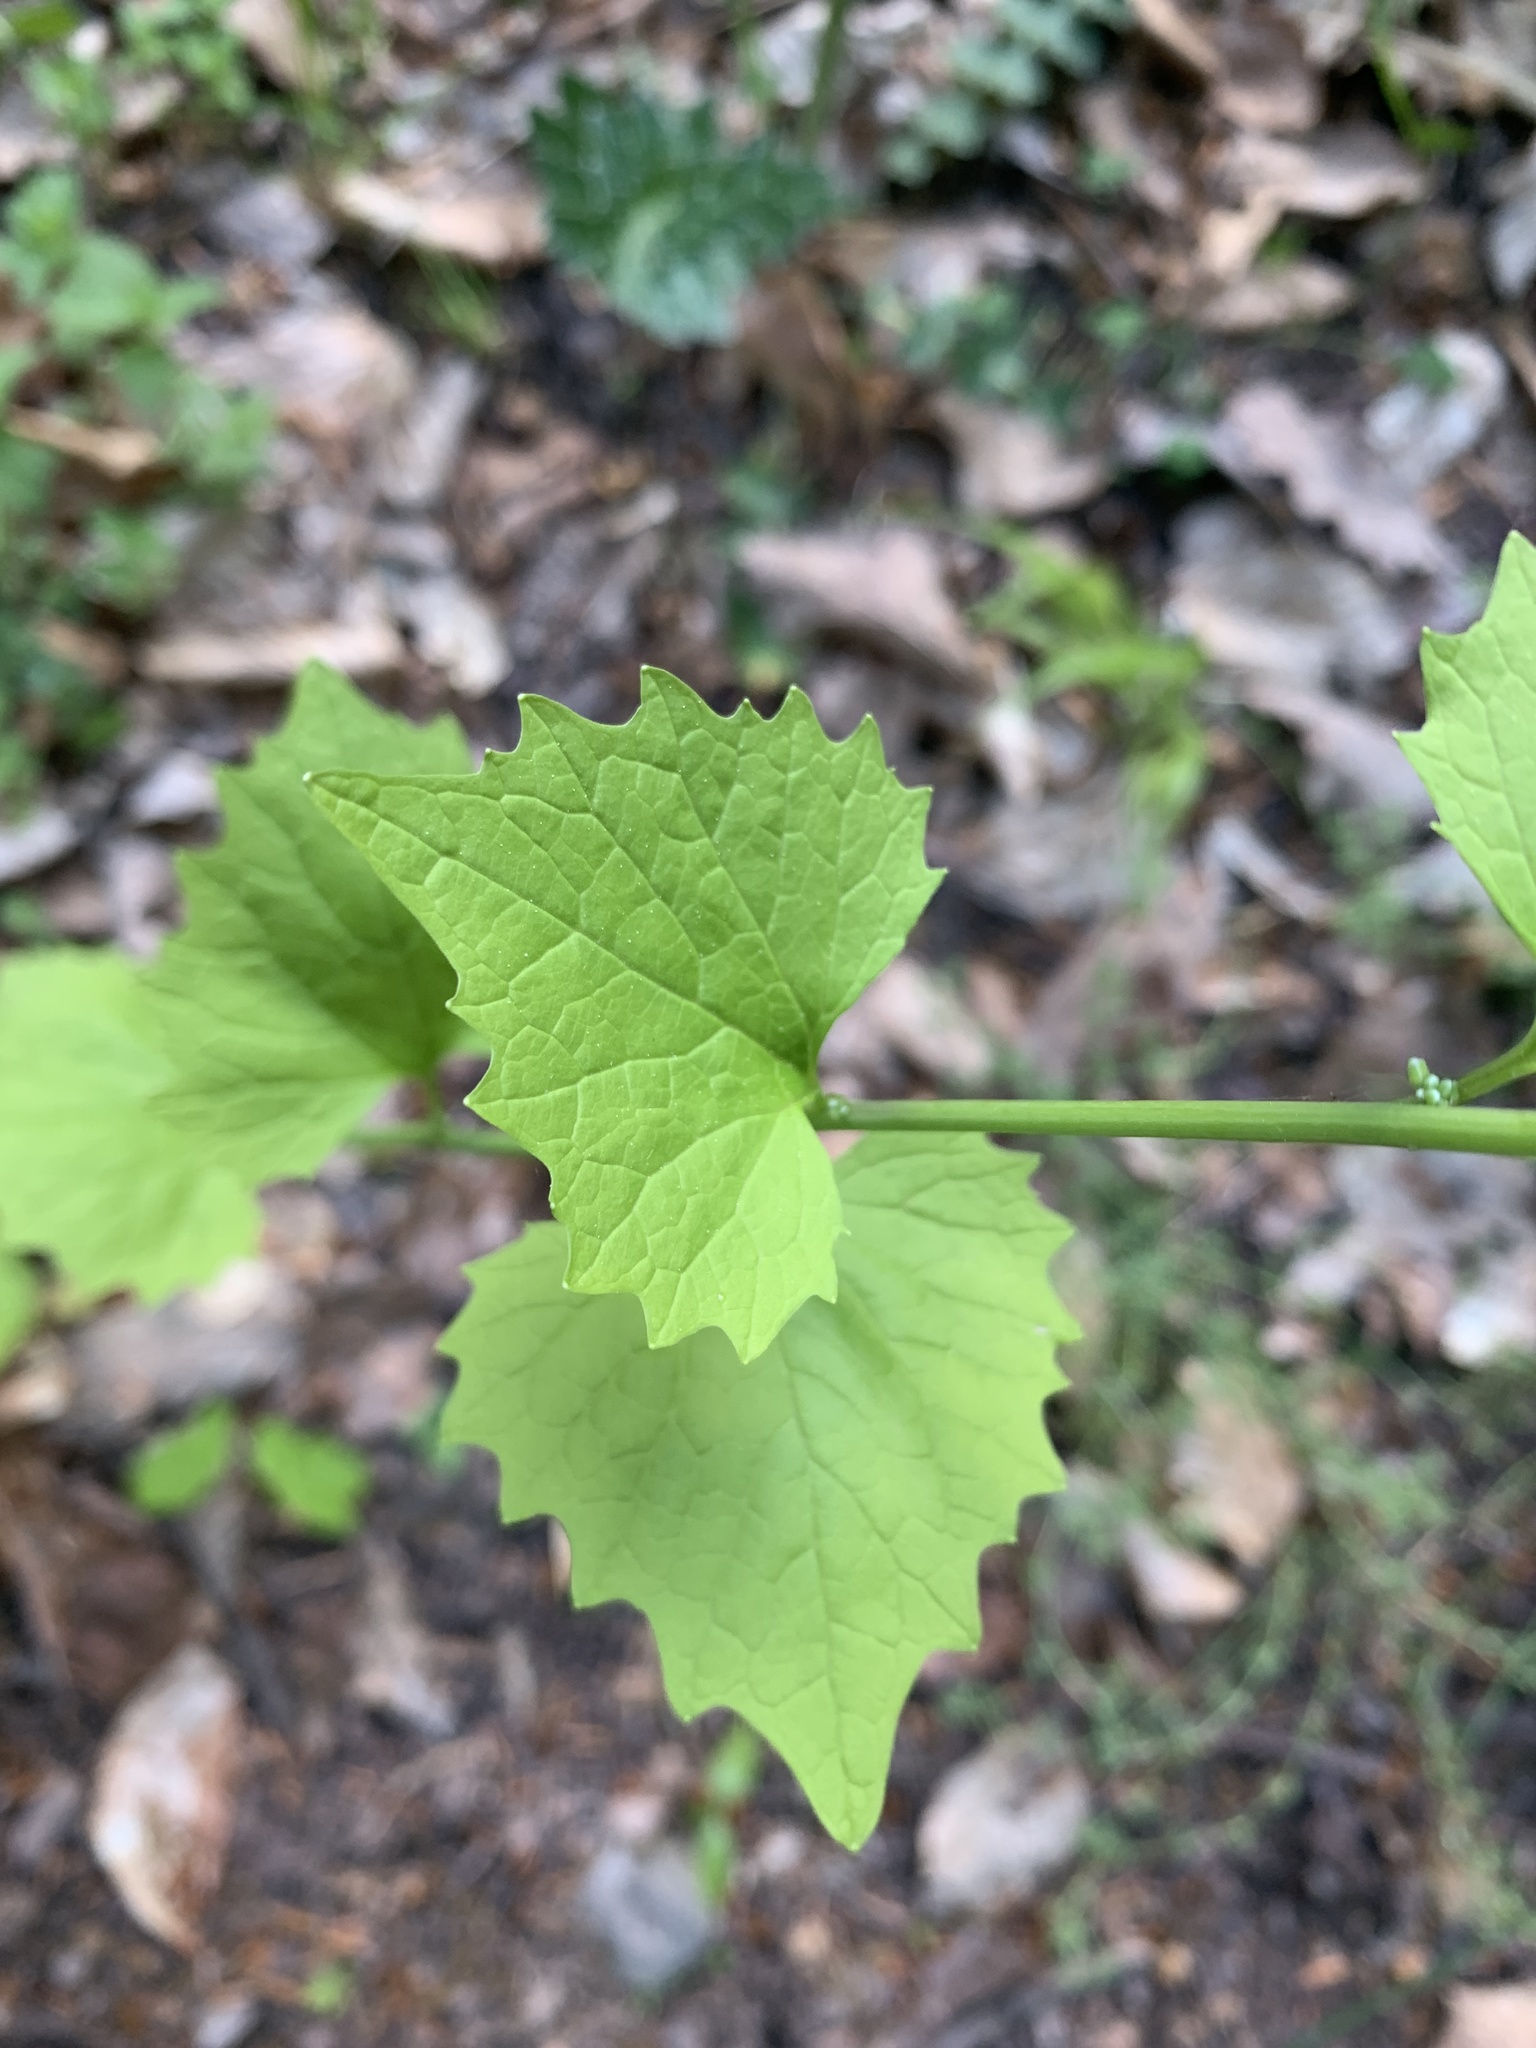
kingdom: Plantae
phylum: Tracheophyta
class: Magnoliopsida
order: Brassicales
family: Brassicaceae
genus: Alliaria
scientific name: Alliaria petiolata
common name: Garlic mustard
